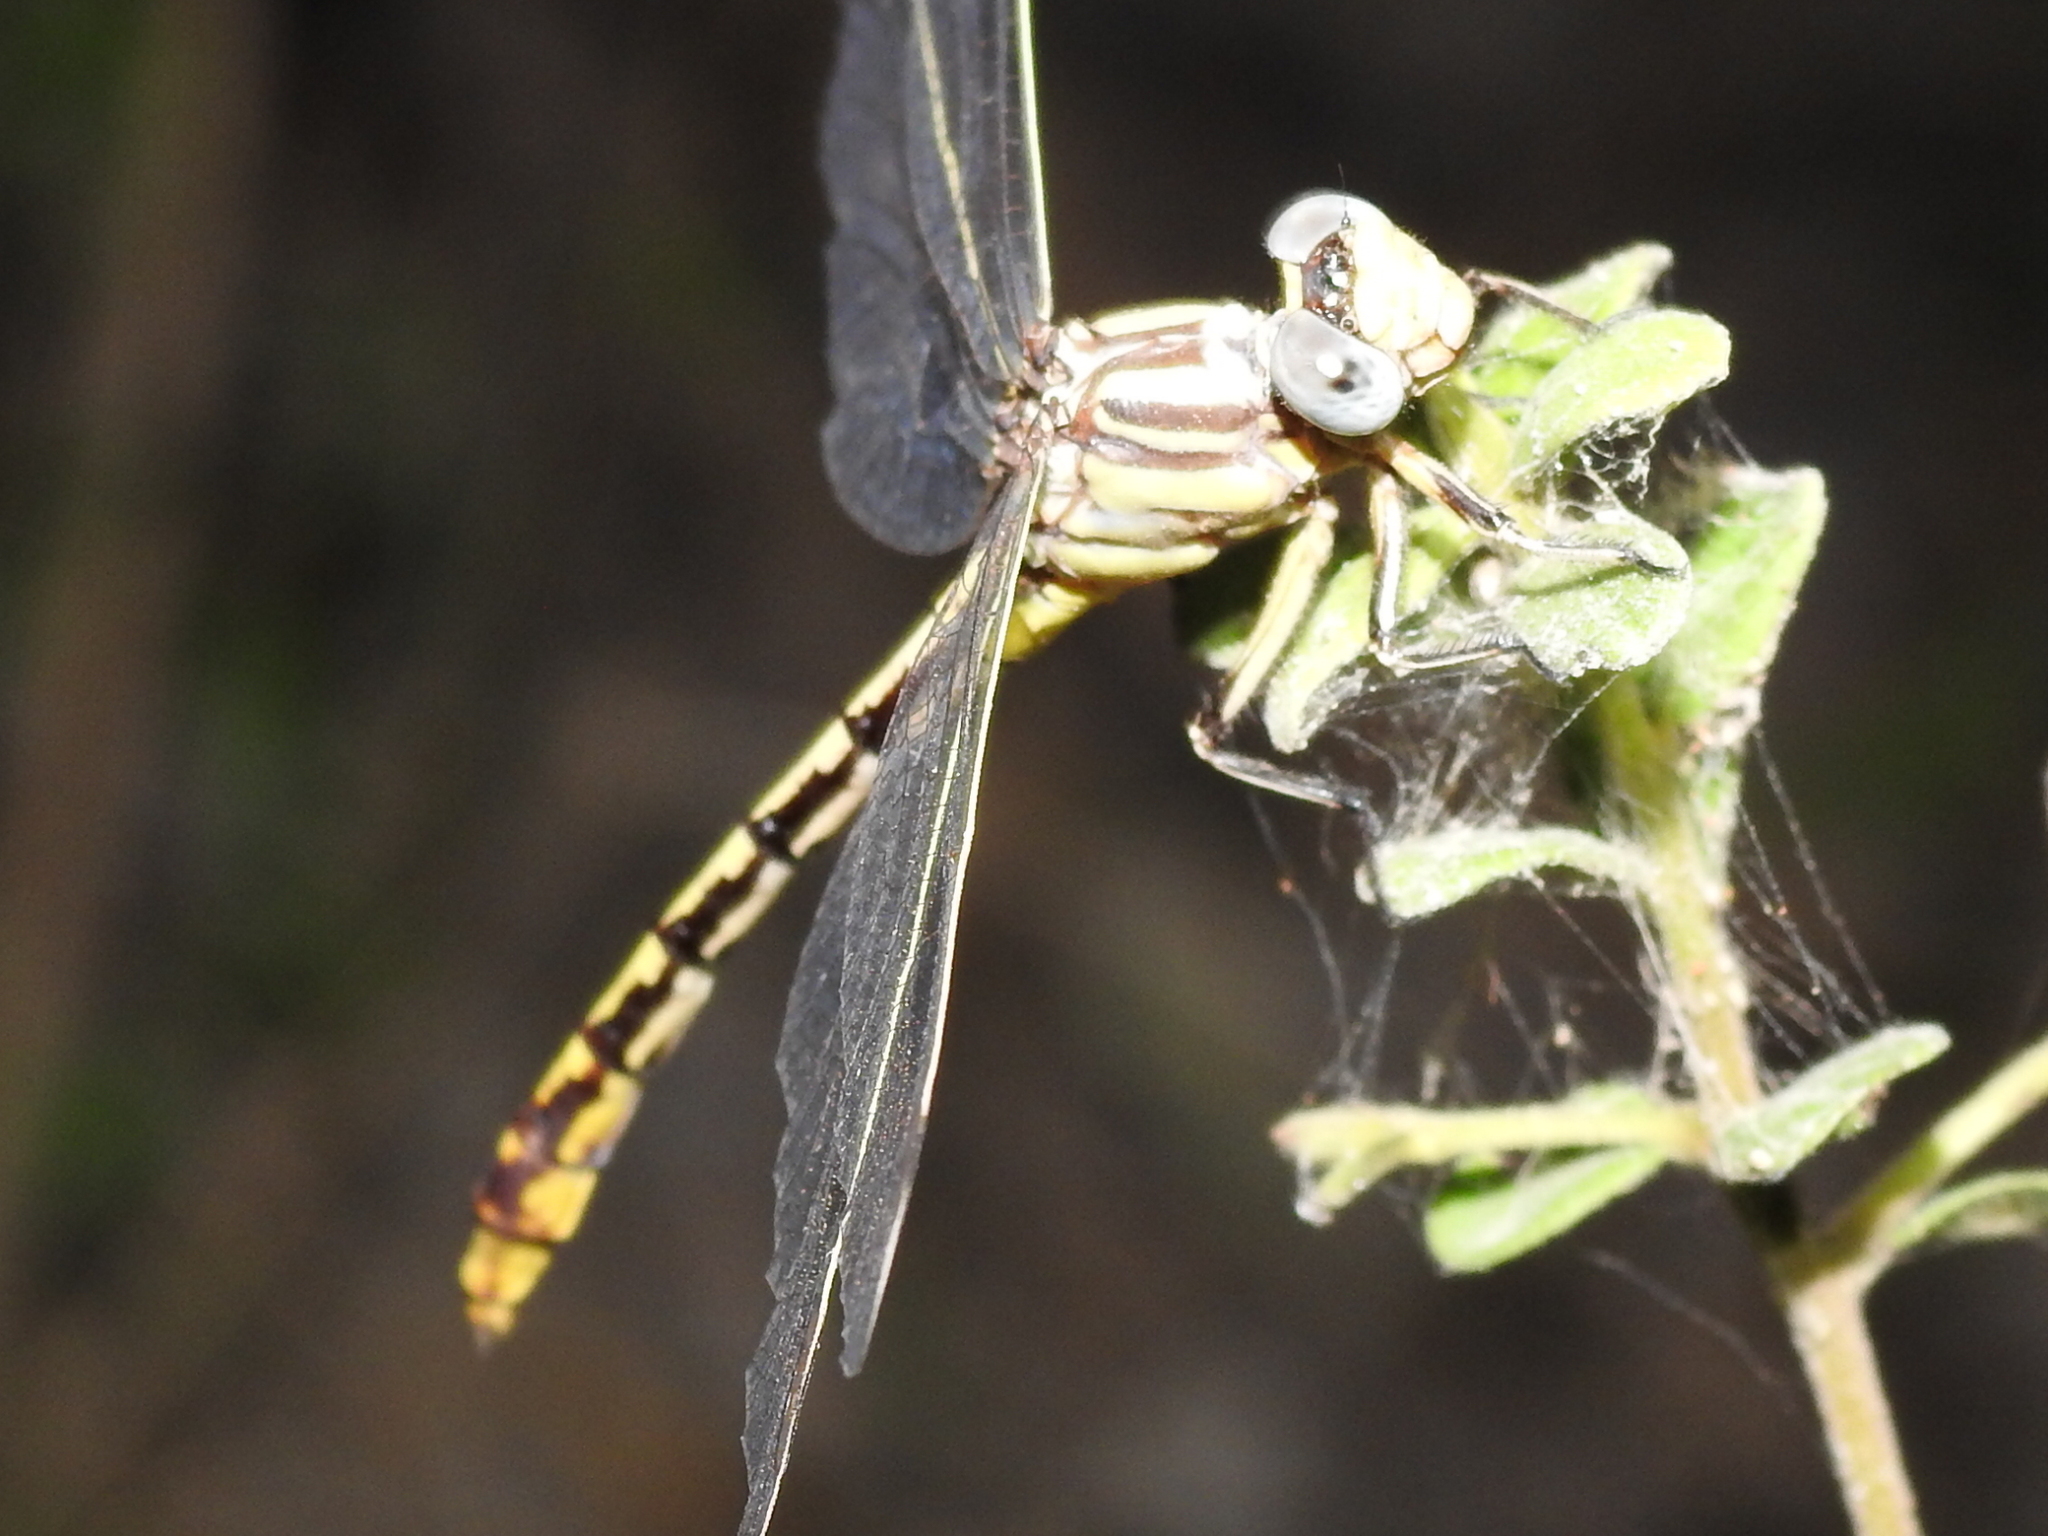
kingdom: Animalia
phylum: Arthropoda
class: Insecta
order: Odonata
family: Gomphidae
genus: Phanogomphus
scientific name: Phanogomphus militaris
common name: Sulphur-tipped clubtail
